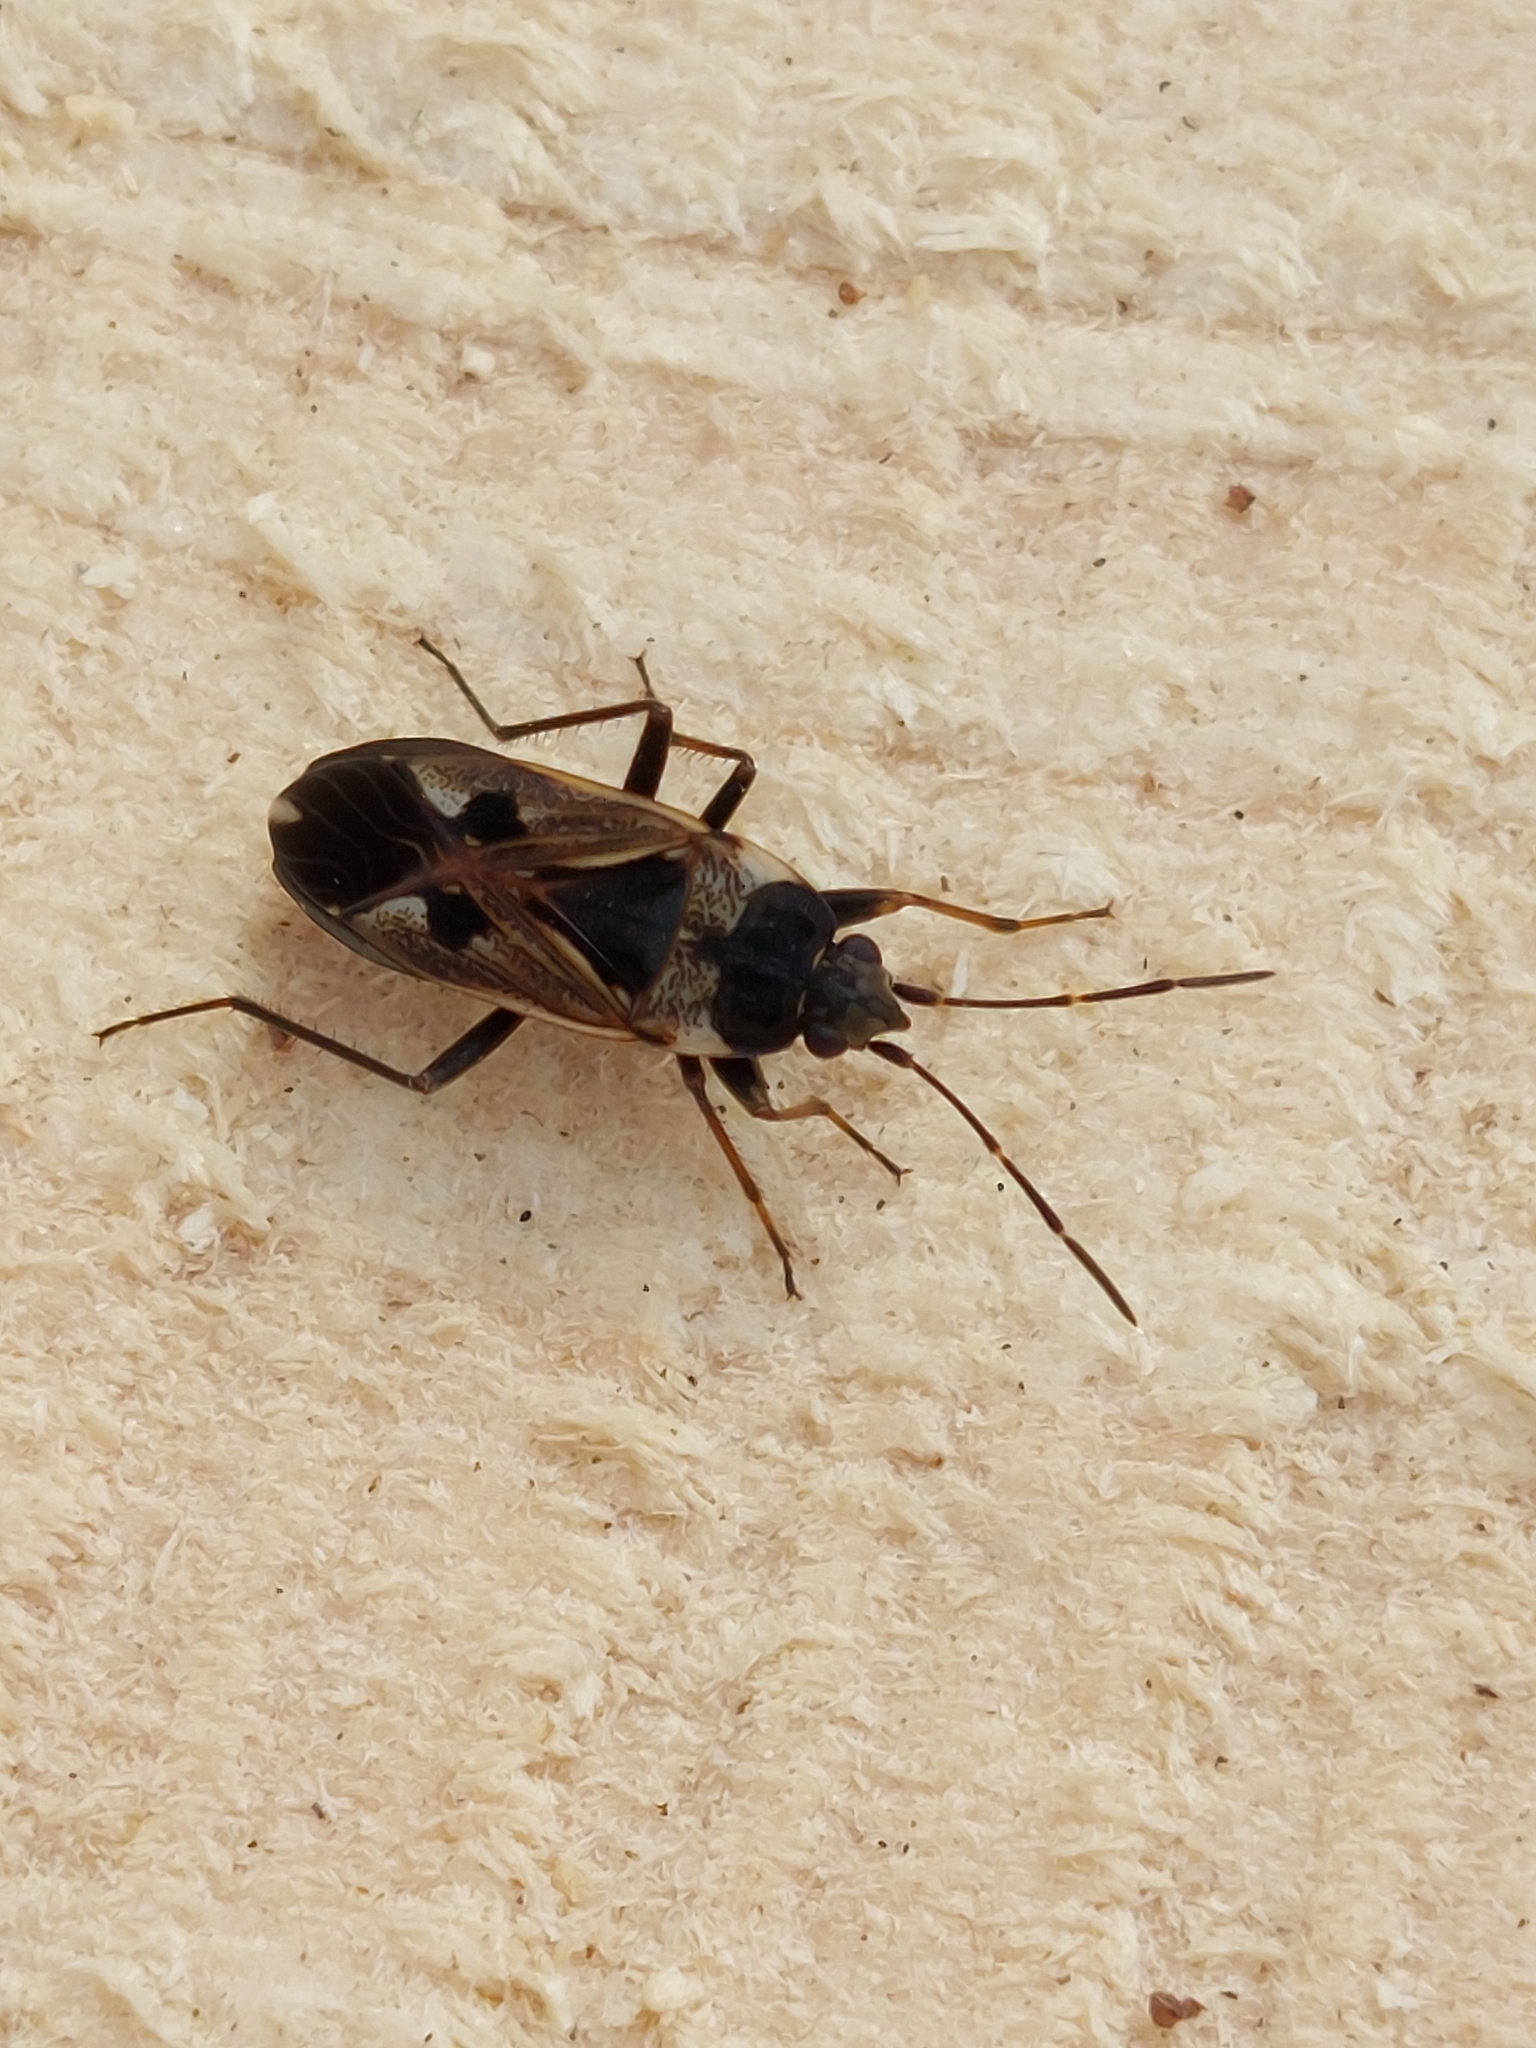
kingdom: Animalia
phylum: Arthropoda
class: Insecta
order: Hemiptera
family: Rhyparochromidae
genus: Rhyparochromus
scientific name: Rhyparochromus vulgaris
